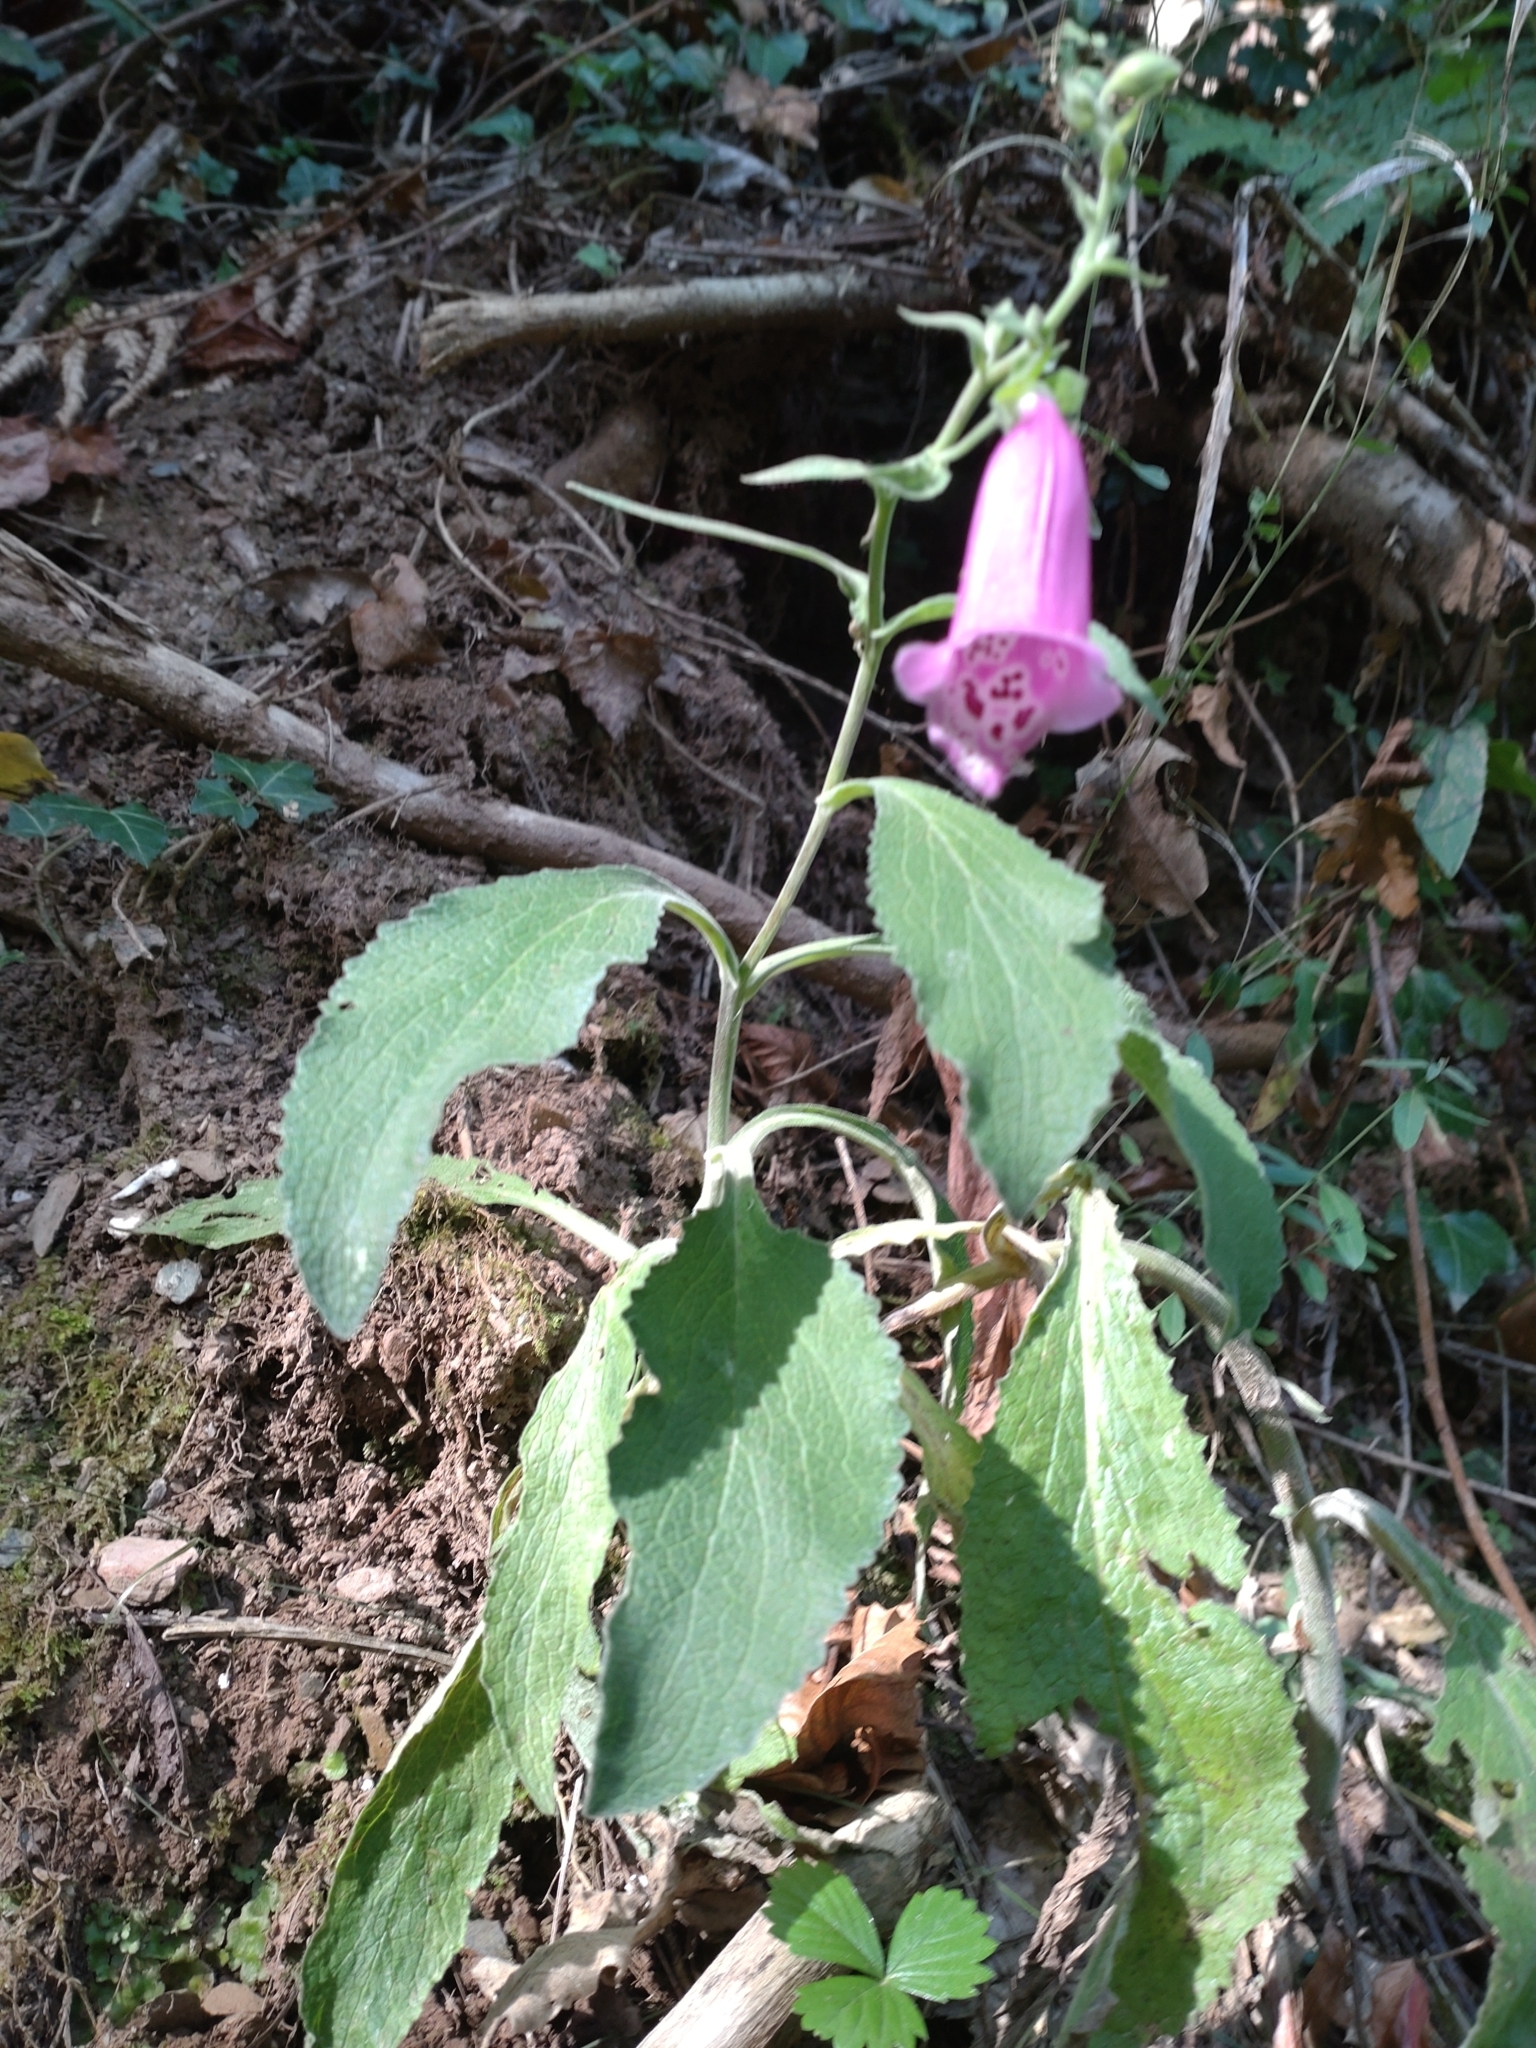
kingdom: Plantae
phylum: Tracheophyta
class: Magnoliopsida
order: Lamiales
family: Plantaginaceae
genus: Digitalis
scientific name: Digitalis purpurea
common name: Foxglove
